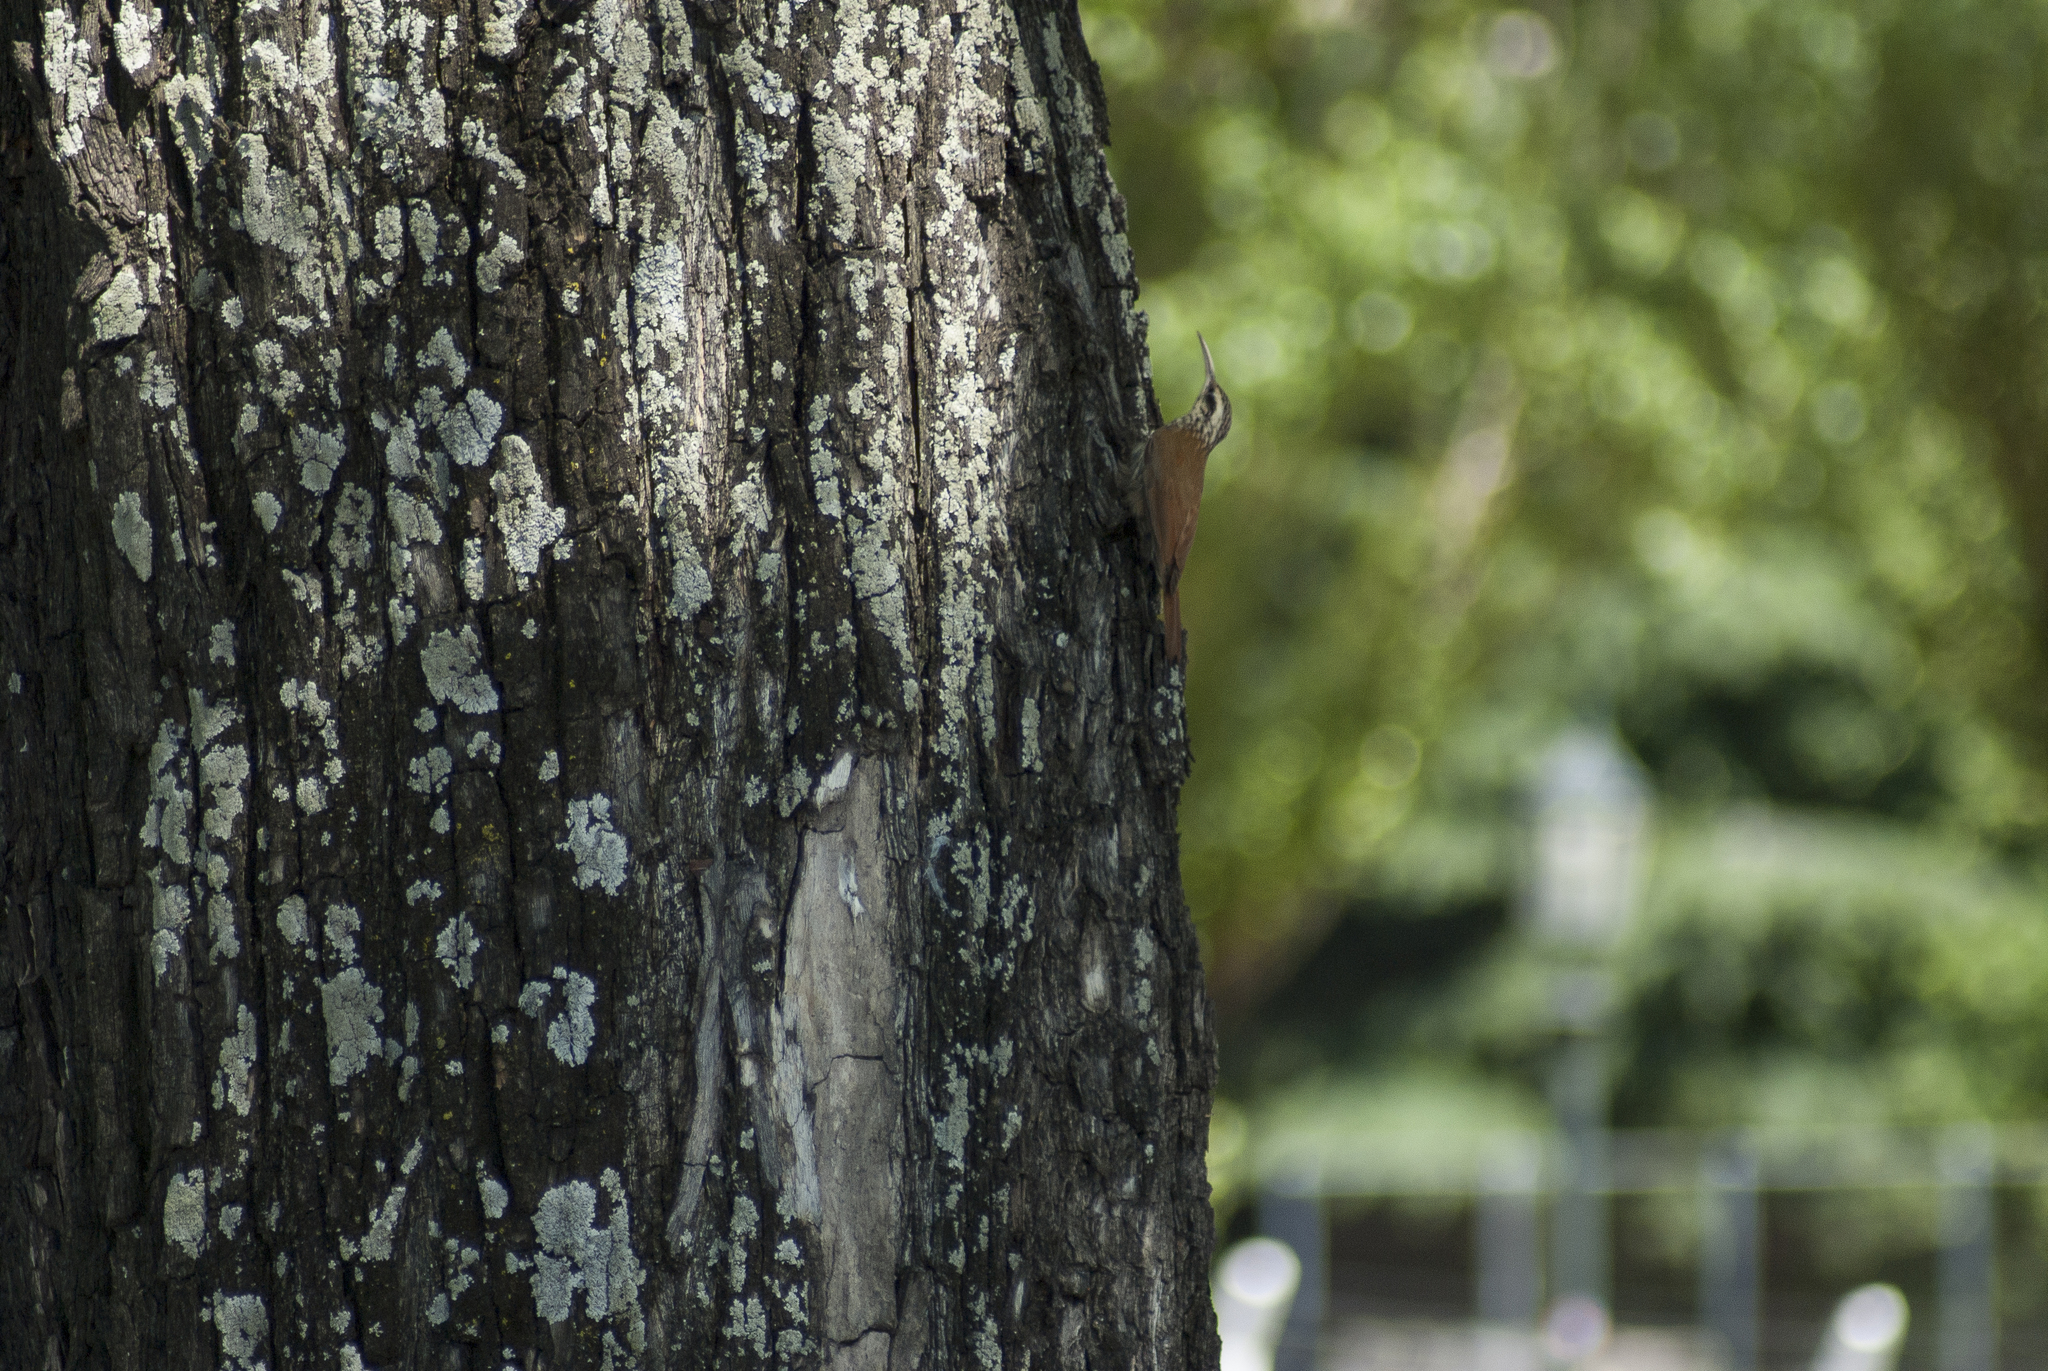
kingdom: Animalia
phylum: Chordata
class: Aves
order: Passeriformes
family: Furnariidae
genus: Lepidocolaptes
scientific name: Lepidocolaptes angustirostris
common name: Narrow-billed woodcreeper
